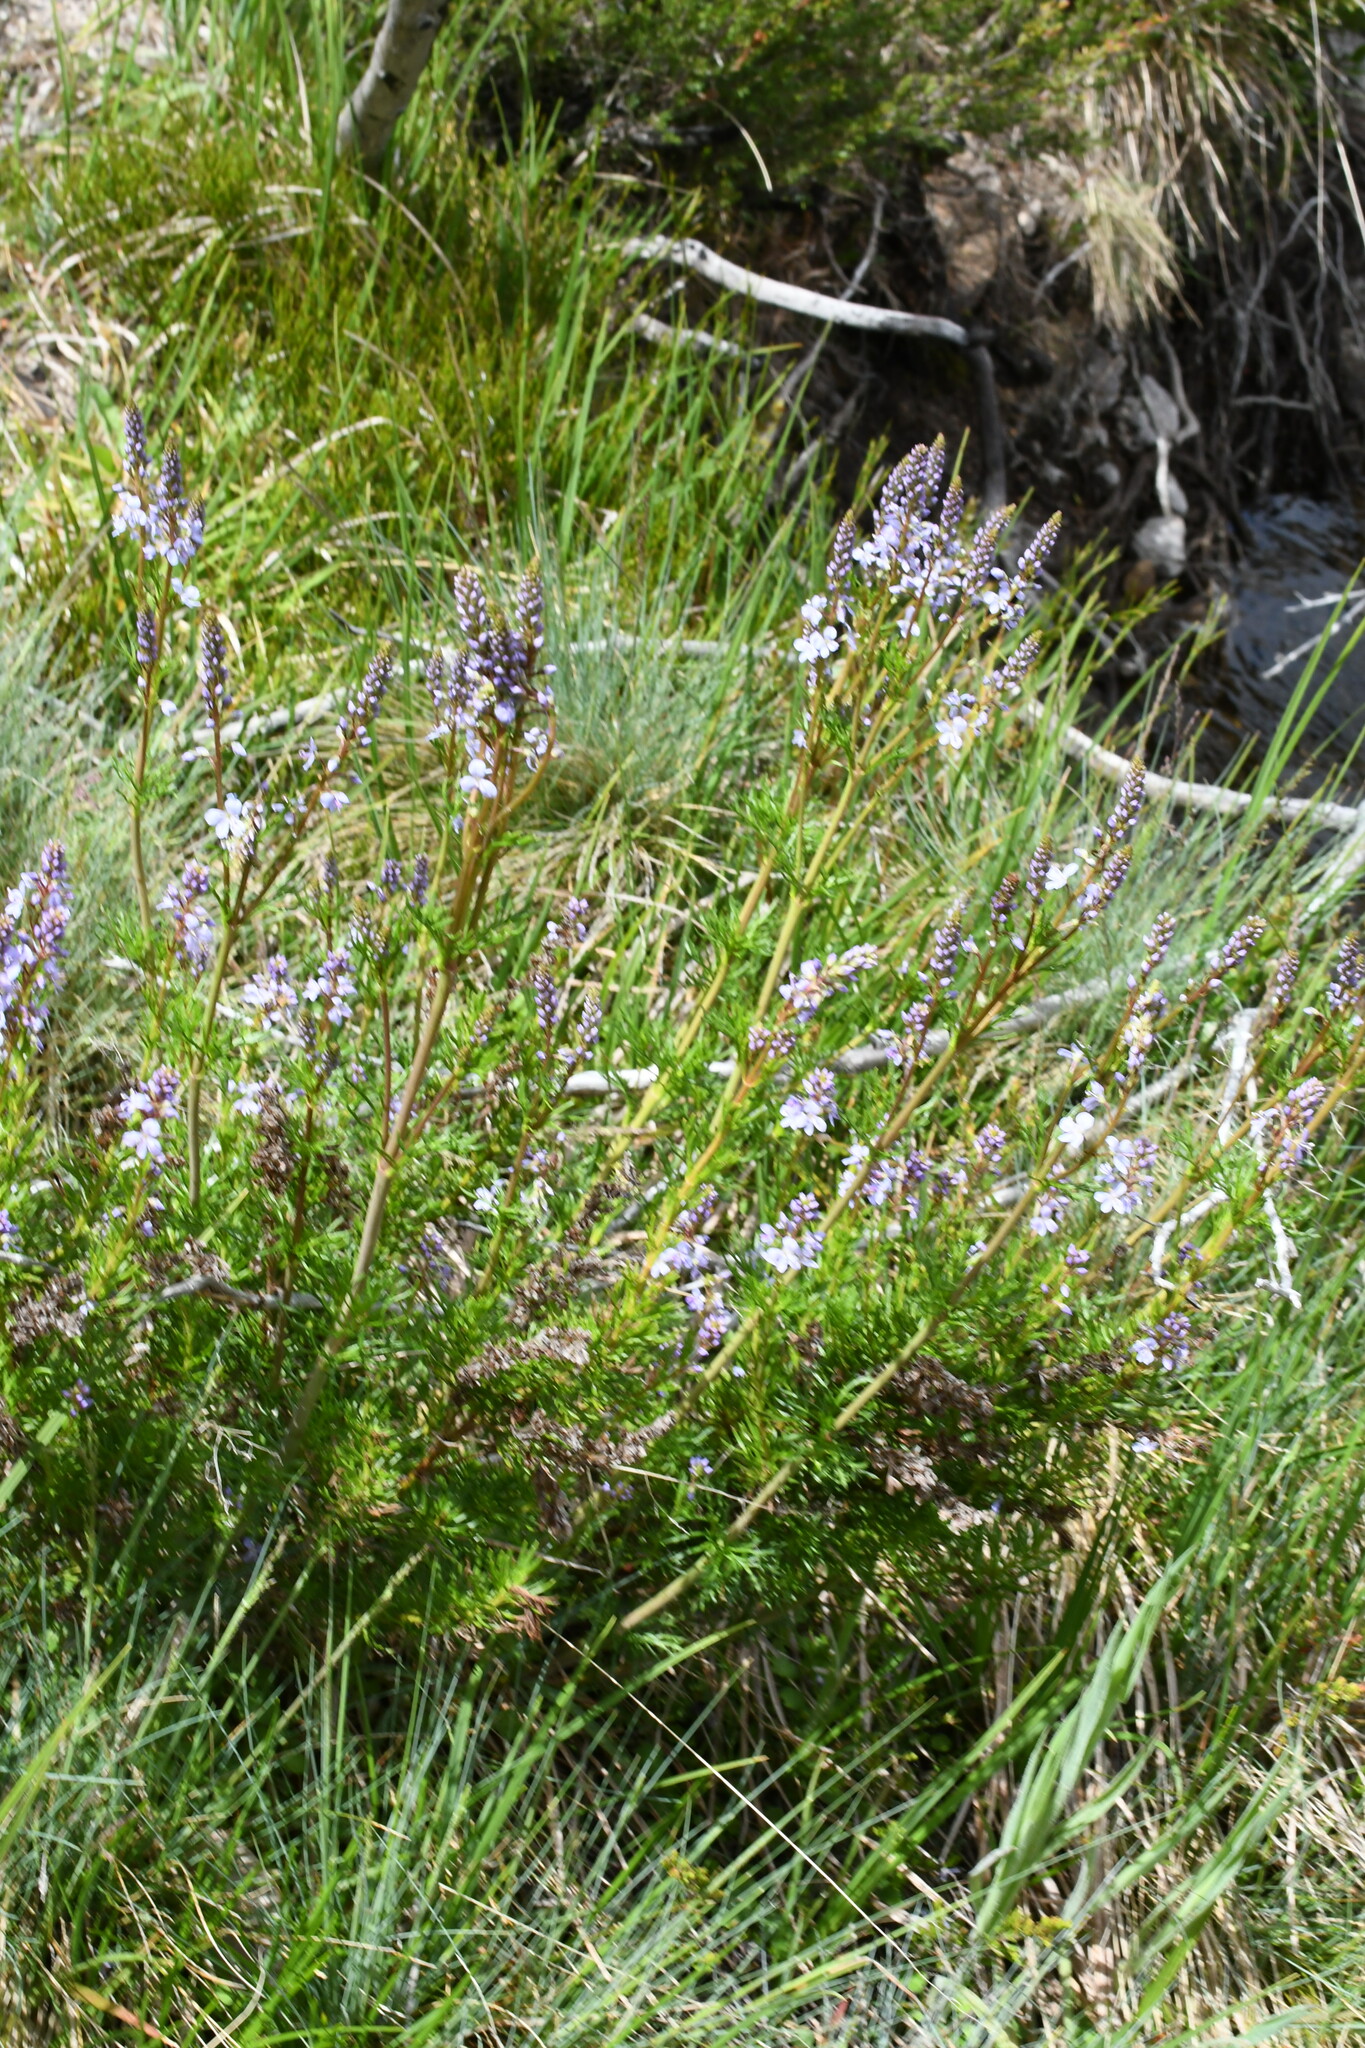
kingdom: Plantae
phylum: Tracheophyta
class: Magnoliopsida
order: Lamiales
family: Plantaginaceae
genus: Veronica
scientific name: Veronica nivea
